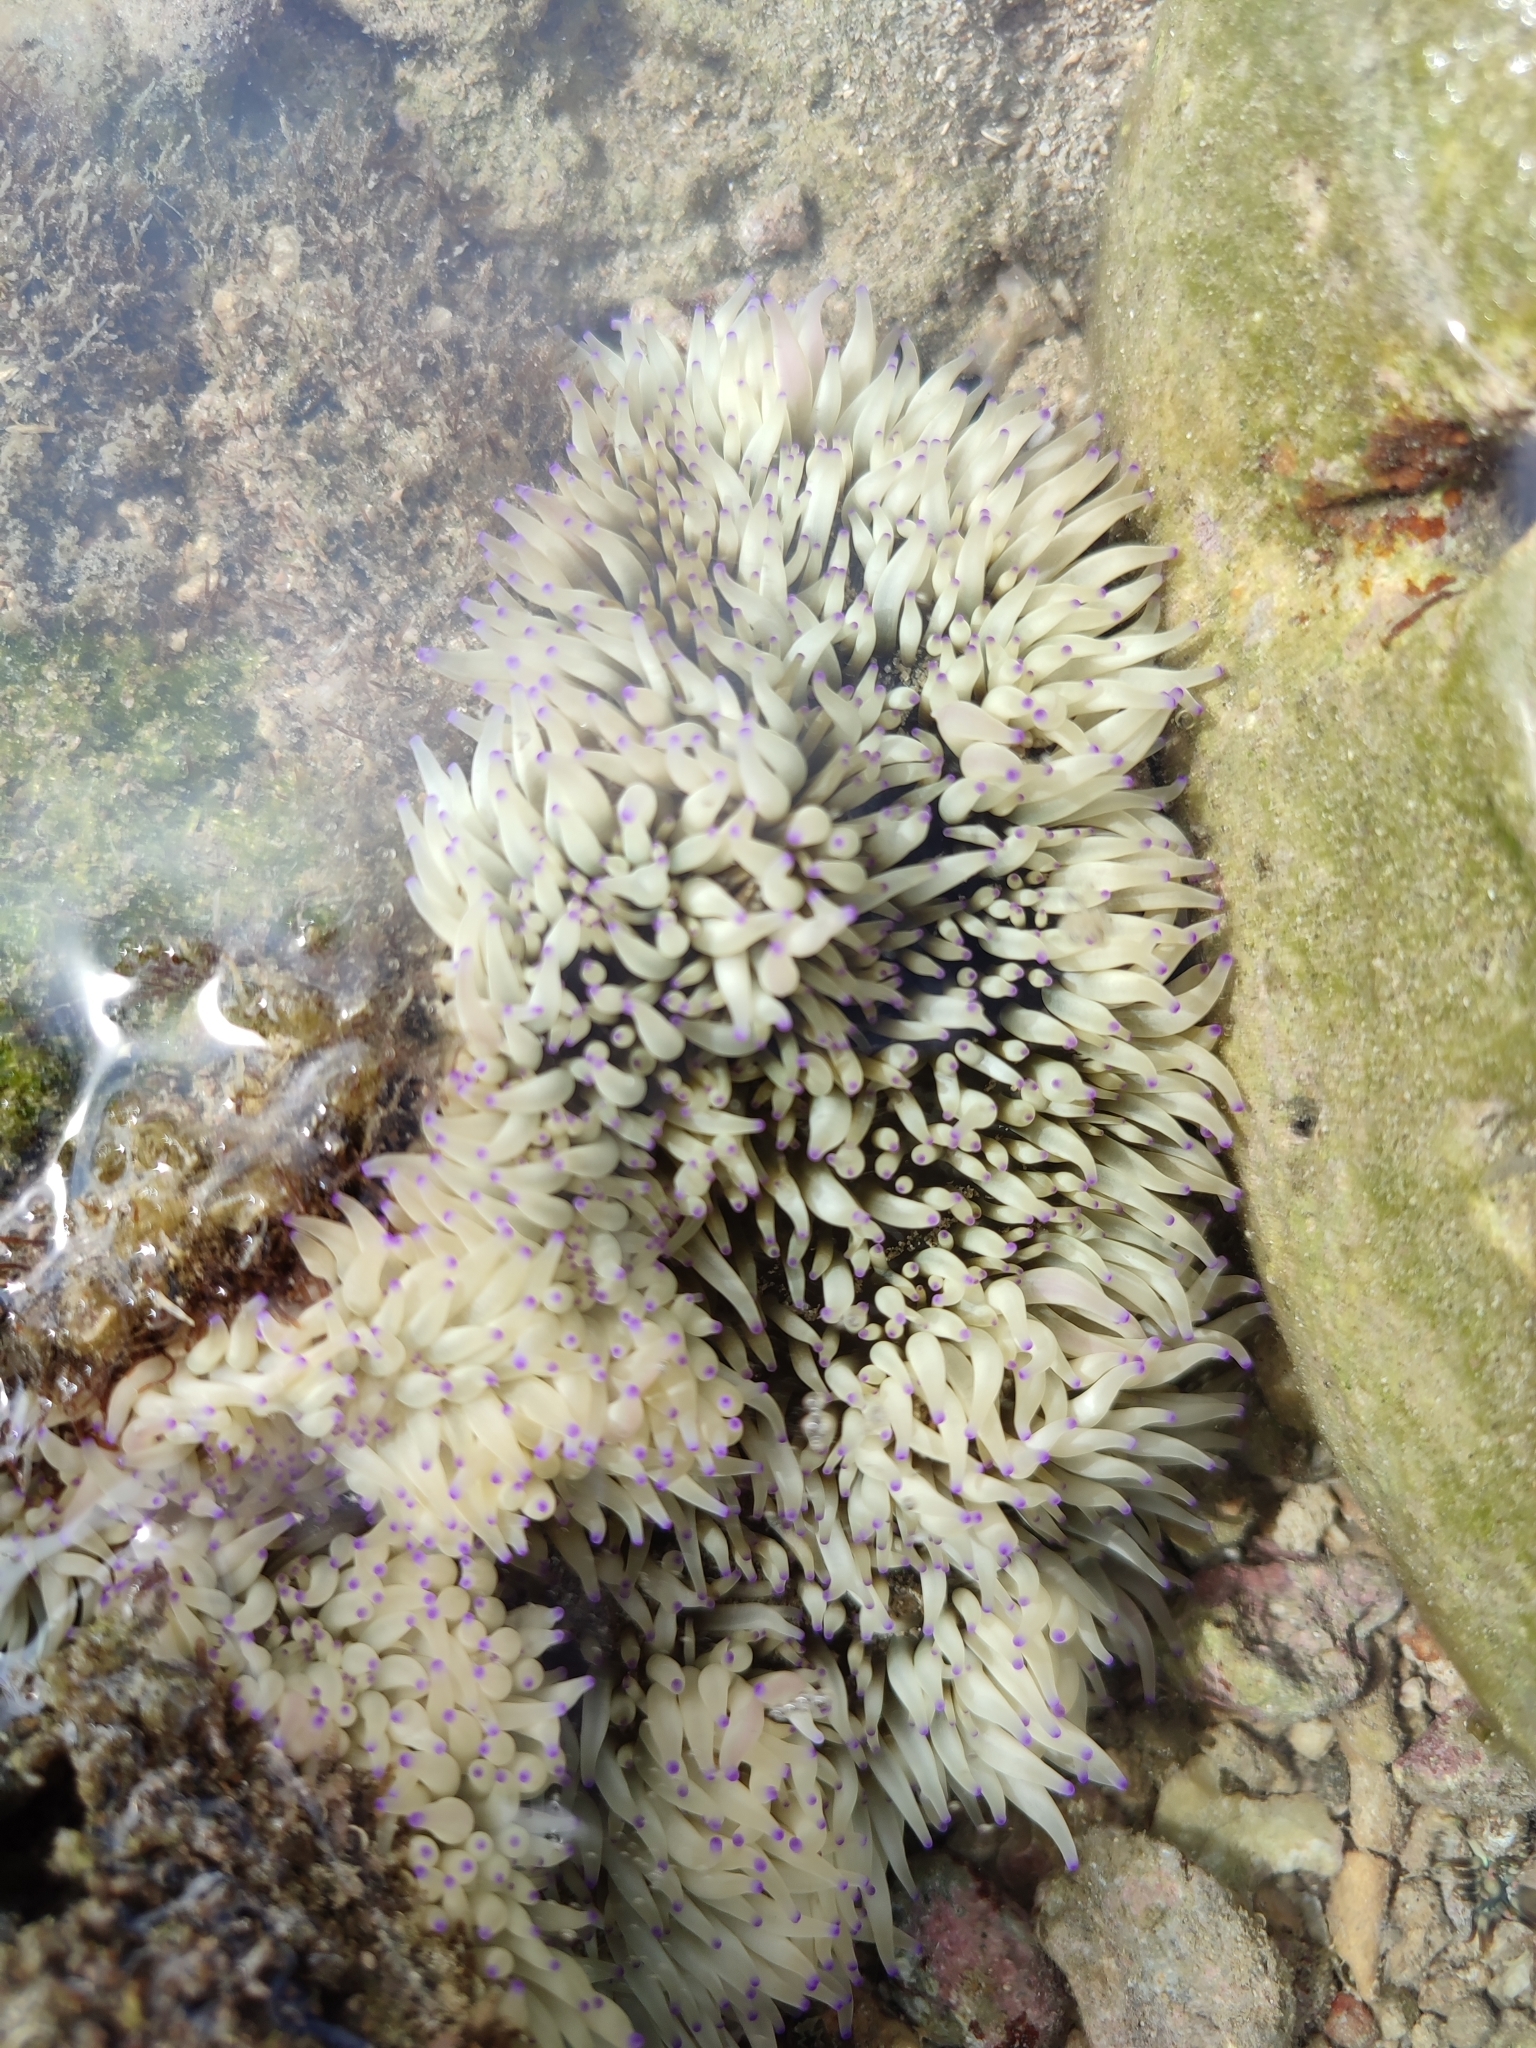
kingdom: Animalia
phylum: Cnidaria
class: Anthozoa
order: Actiniaria
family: Stichodactylidae
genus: Radianthus
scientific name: Radianthus crispa
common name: Leather anemone
